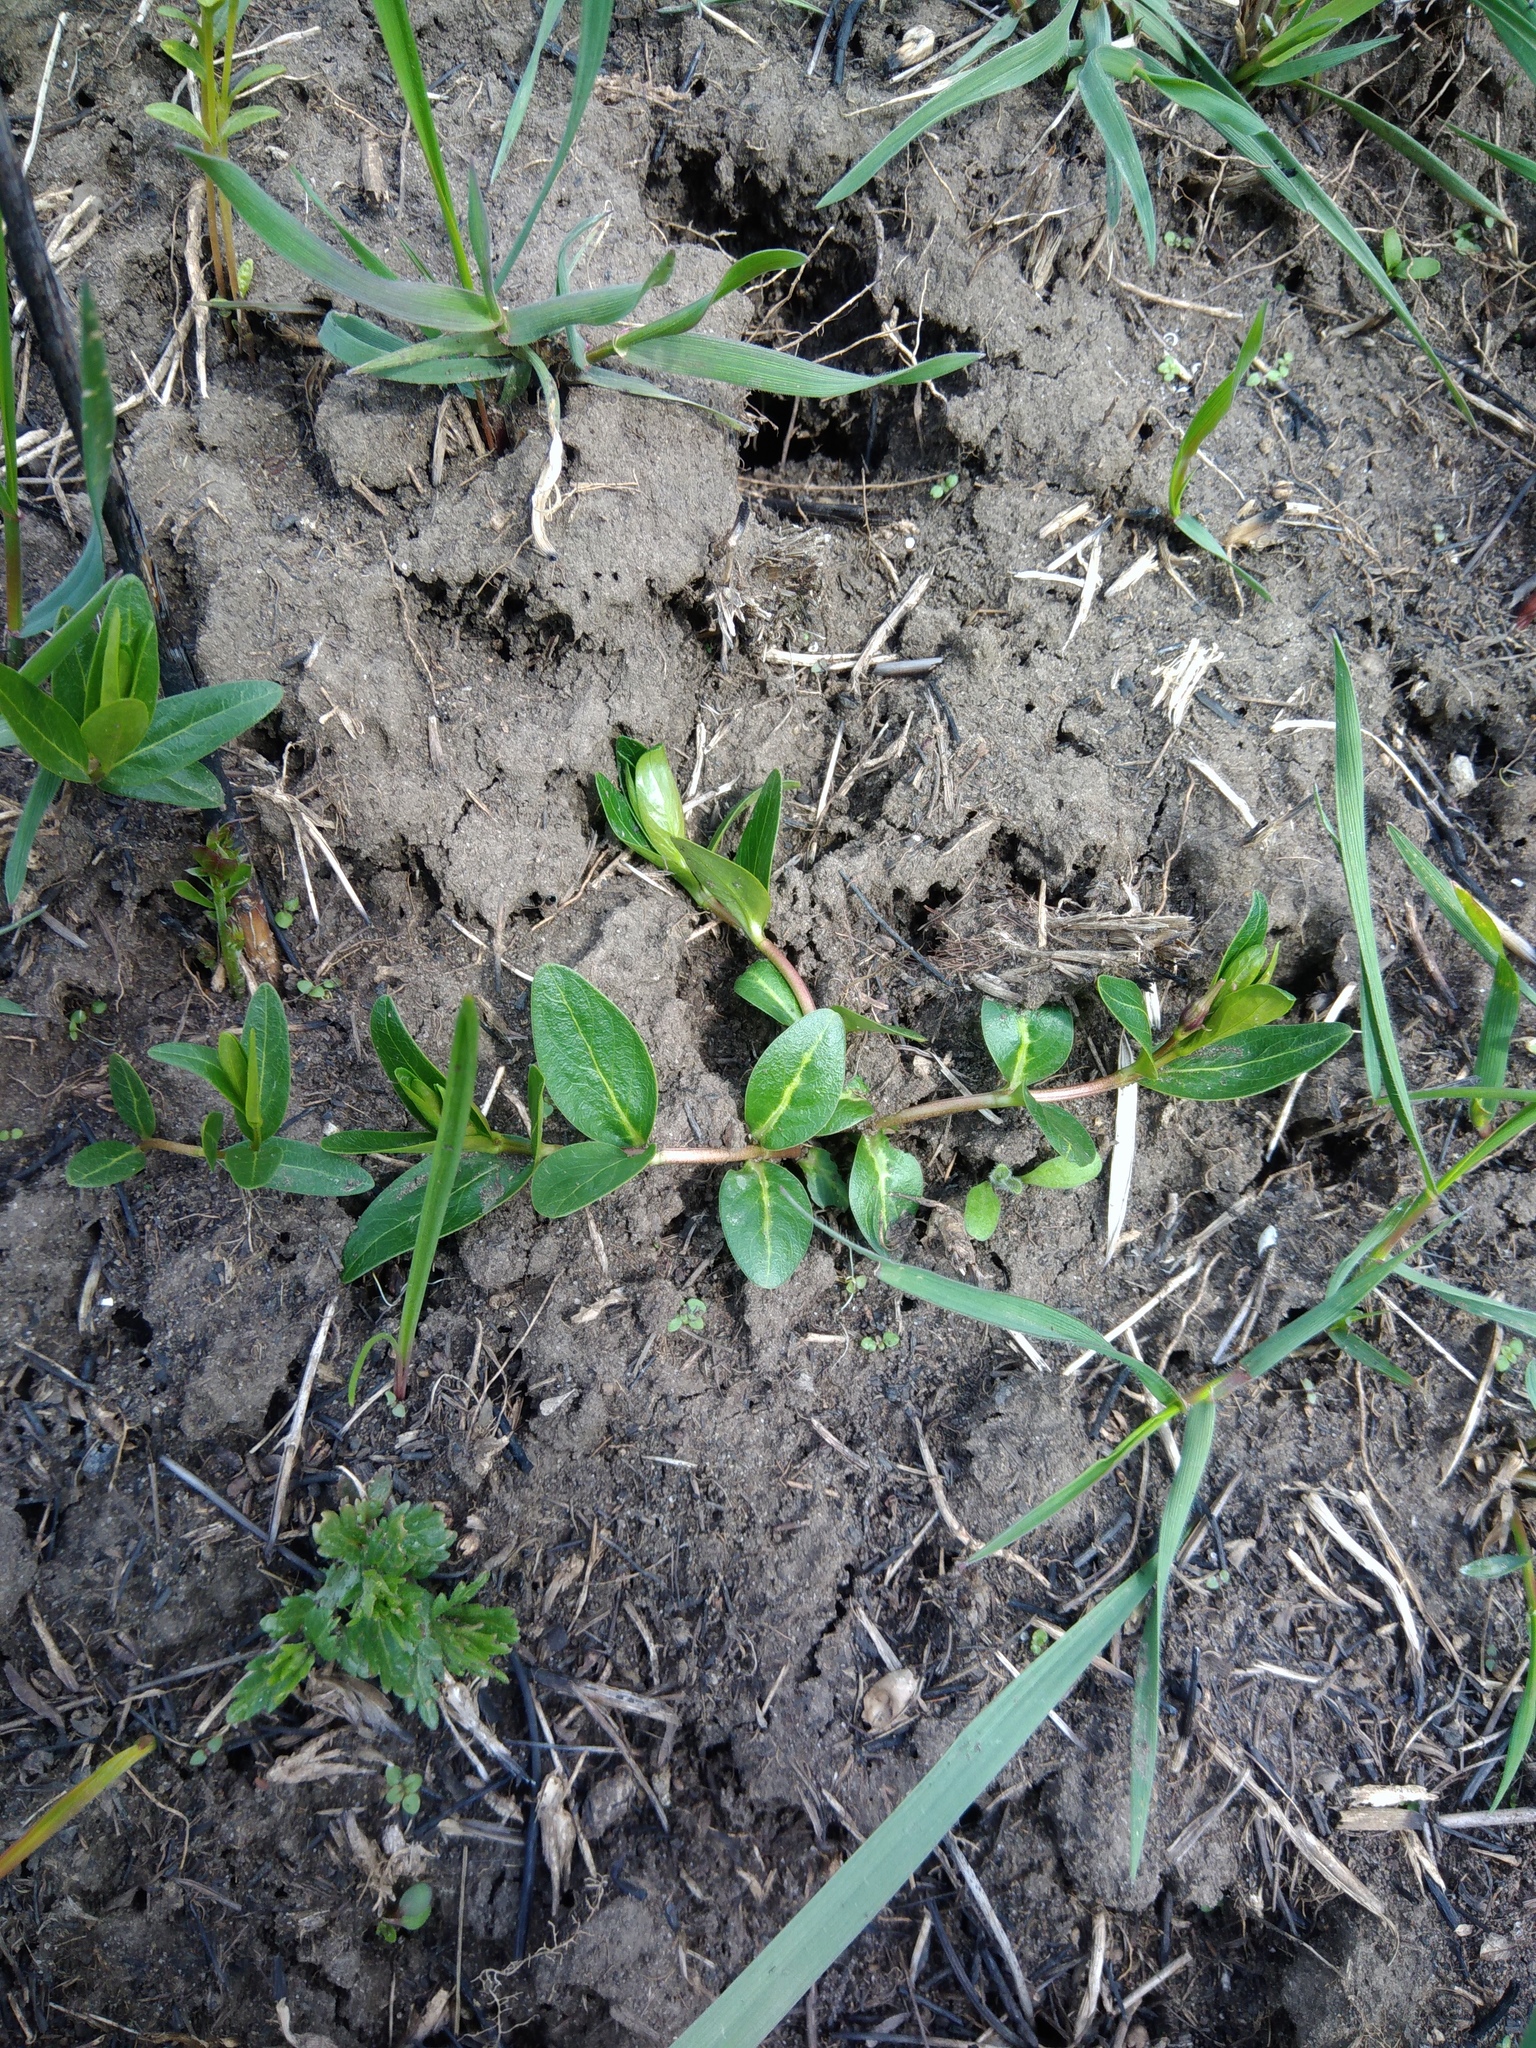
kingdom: Plantae
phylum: Tracheophyta
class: Magnoliopsida
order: Gentianales
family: Apocynaceae
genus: Vinca
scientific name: Vinca herbacea
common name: Herbaceous periwinkle
